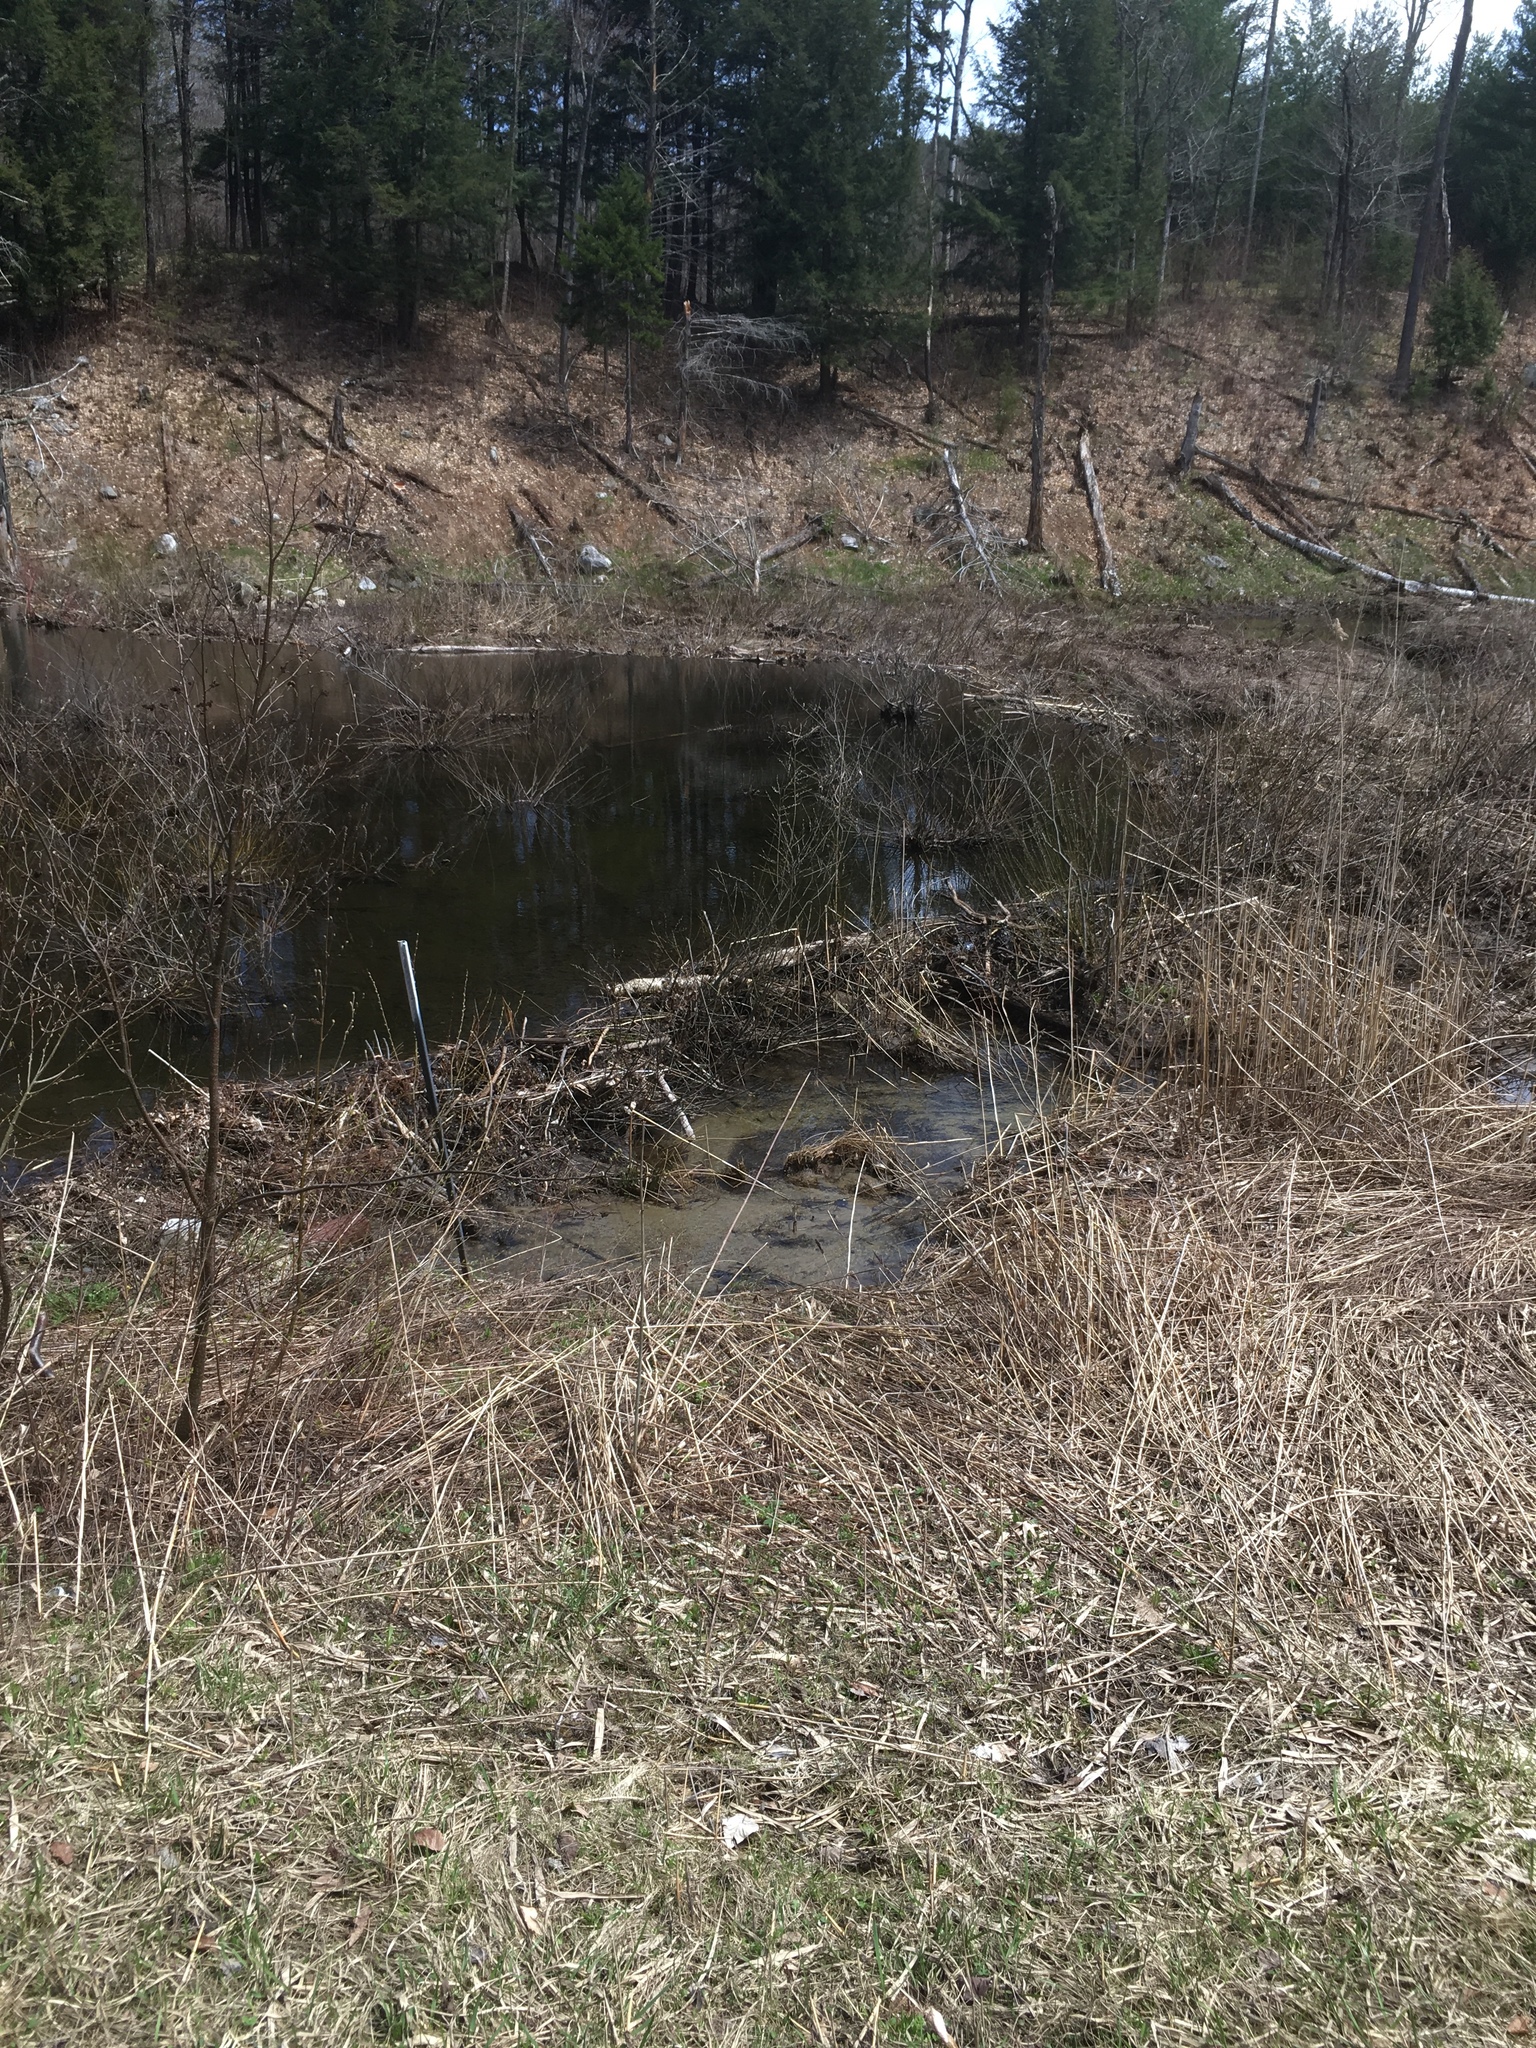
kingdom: Animalia
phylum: Chordata
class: Mammalia
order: Rodentia
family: Castoridae
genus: Castor
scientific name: Castor canadensis
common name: American beaver
